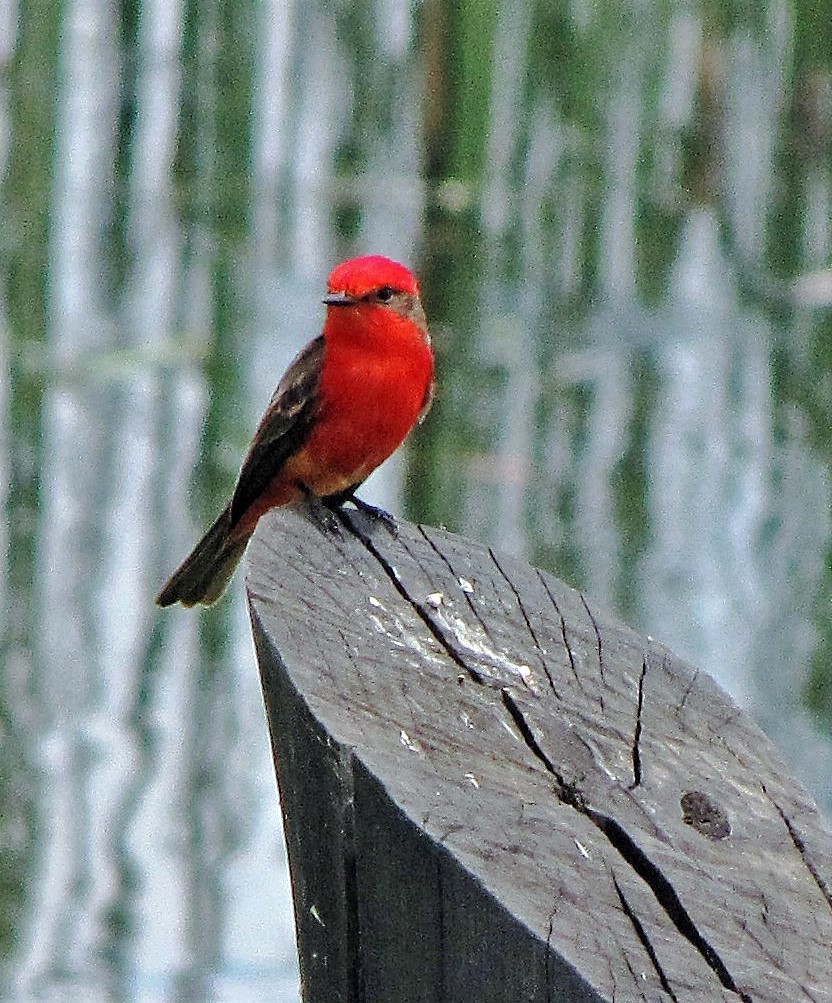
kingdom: Animalia
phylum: Chordata
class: Aves
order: Passeriformes
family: Tyrannidae
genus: Pyrocephalus
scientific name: Pyrocephalus rubinus
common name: Vermilion flycatcher
